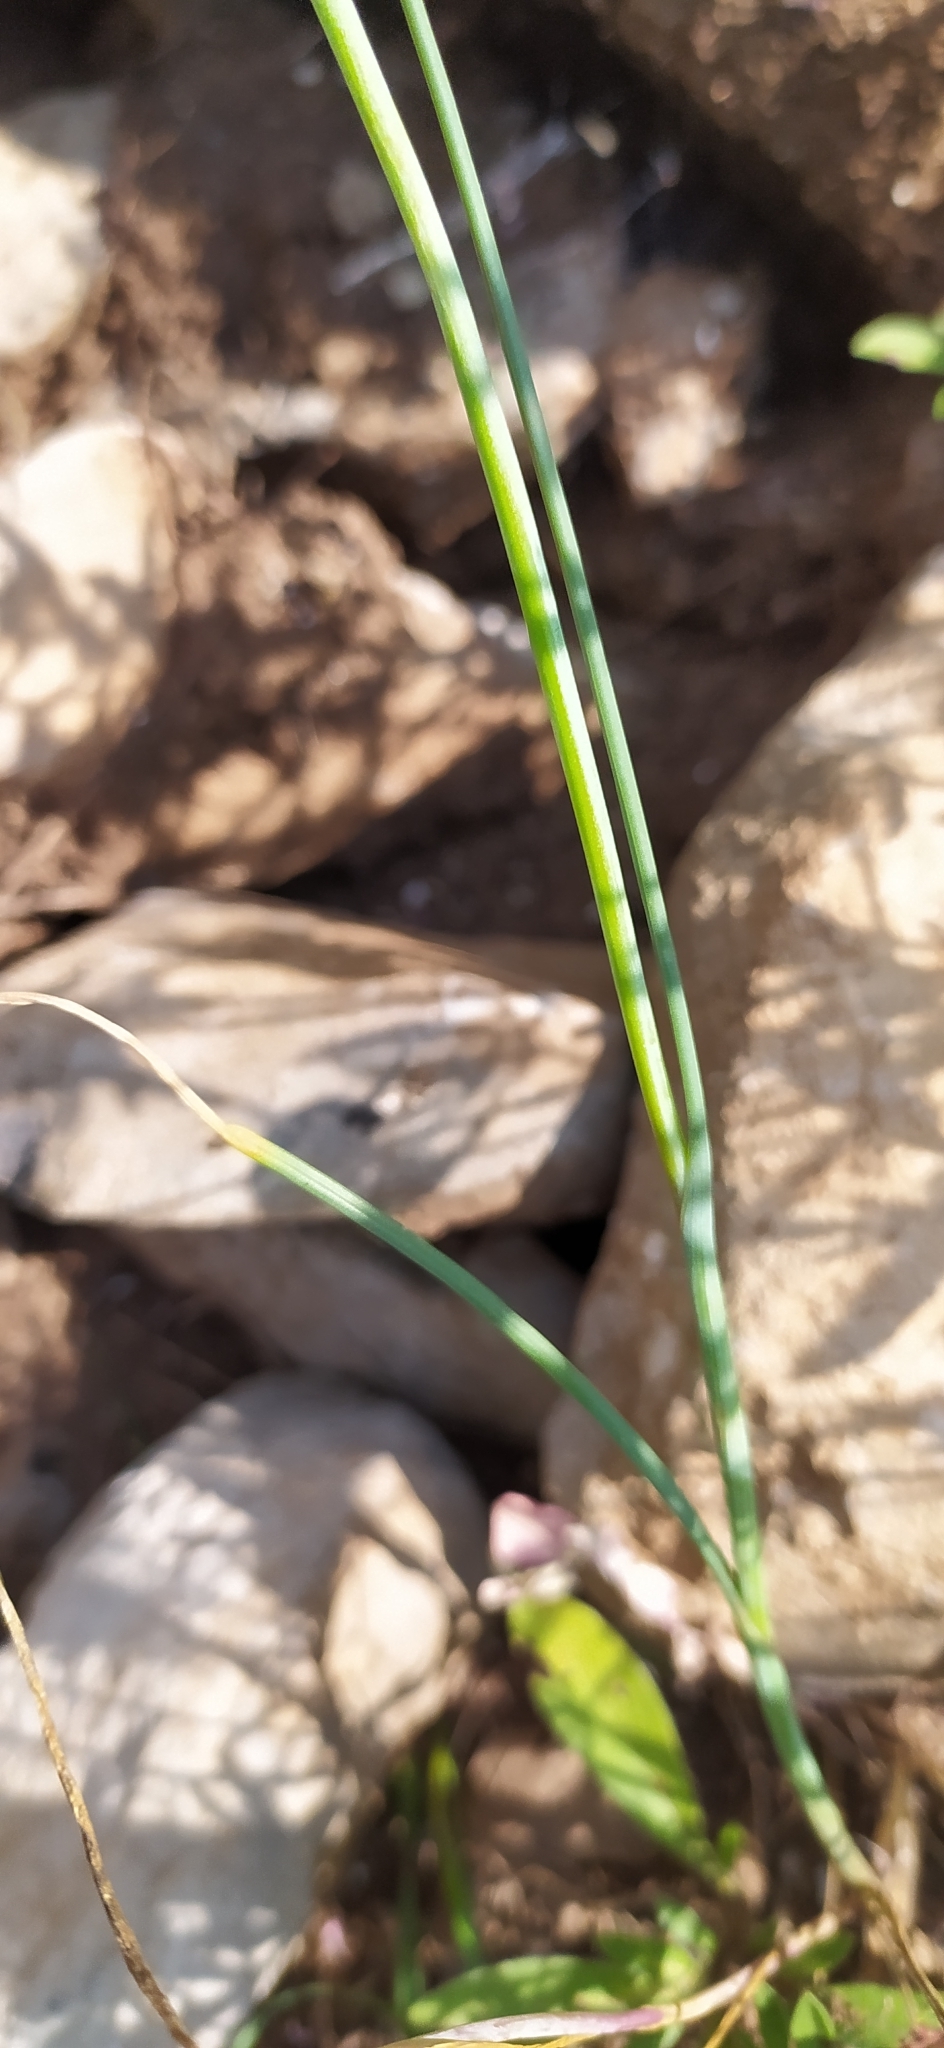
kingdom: Plantae
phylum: Tracheophyta
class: Liliopsida
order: Asparagales
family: Amaryllidaceae
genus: Allium
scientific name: Allium flavum
